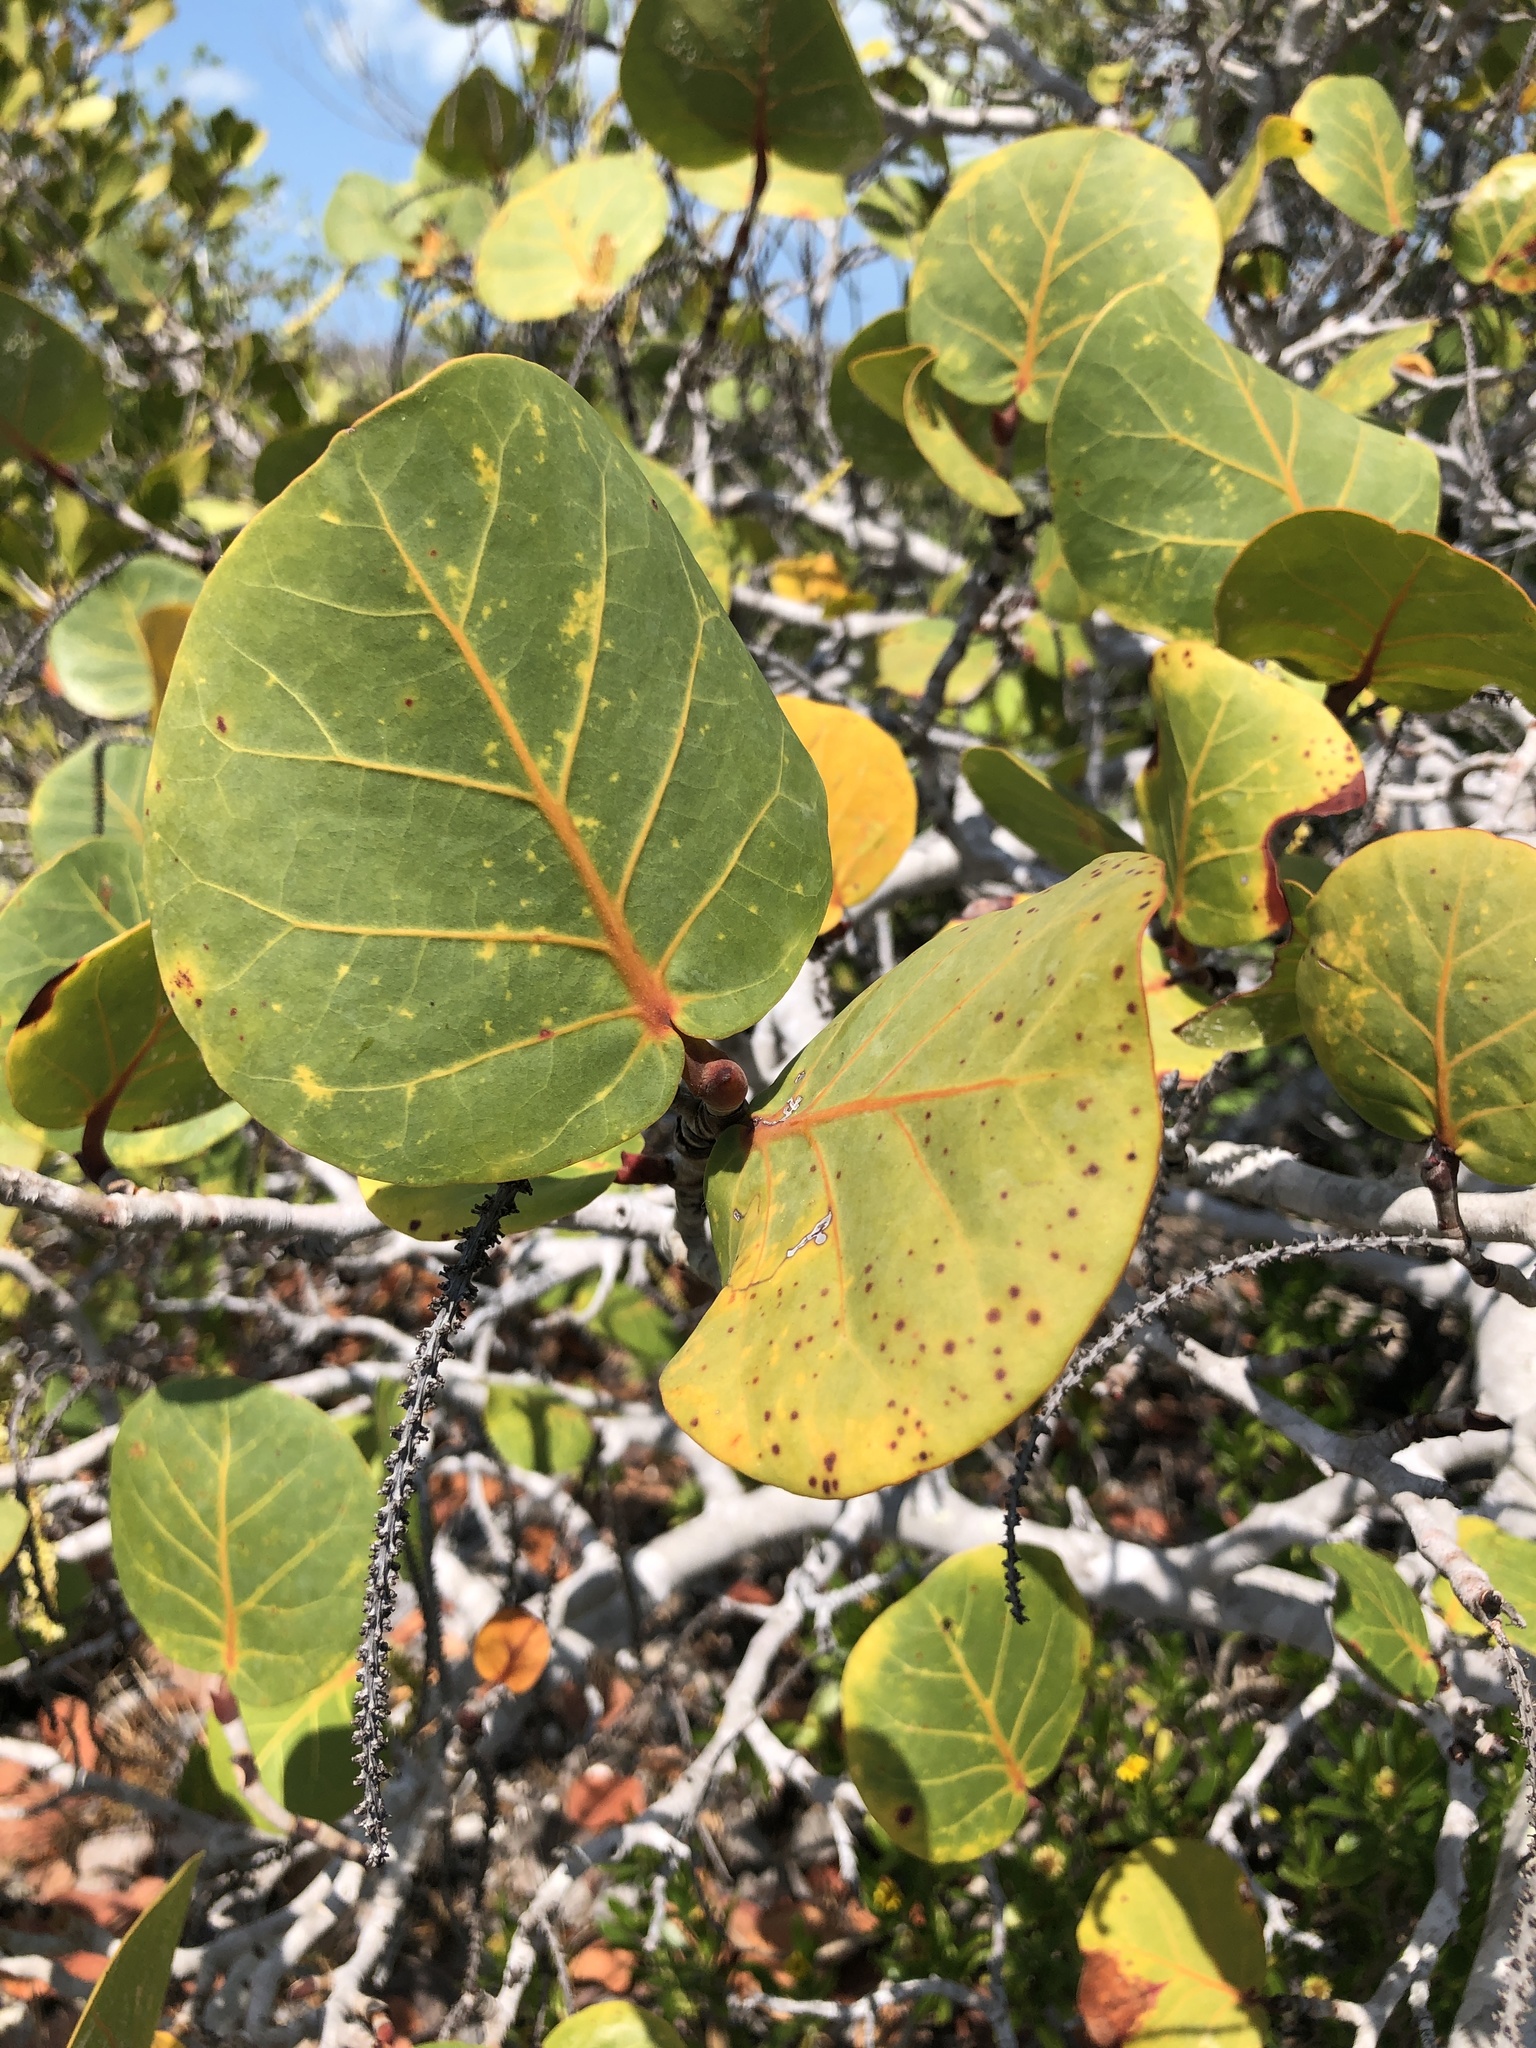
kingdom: Plantae
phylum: Tracheophyta
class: Magnoliopsida
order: Caryophyllales
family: Polygonaceae
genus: Coccoloba
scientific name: Coccoloba uvifera
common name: Seagrape
